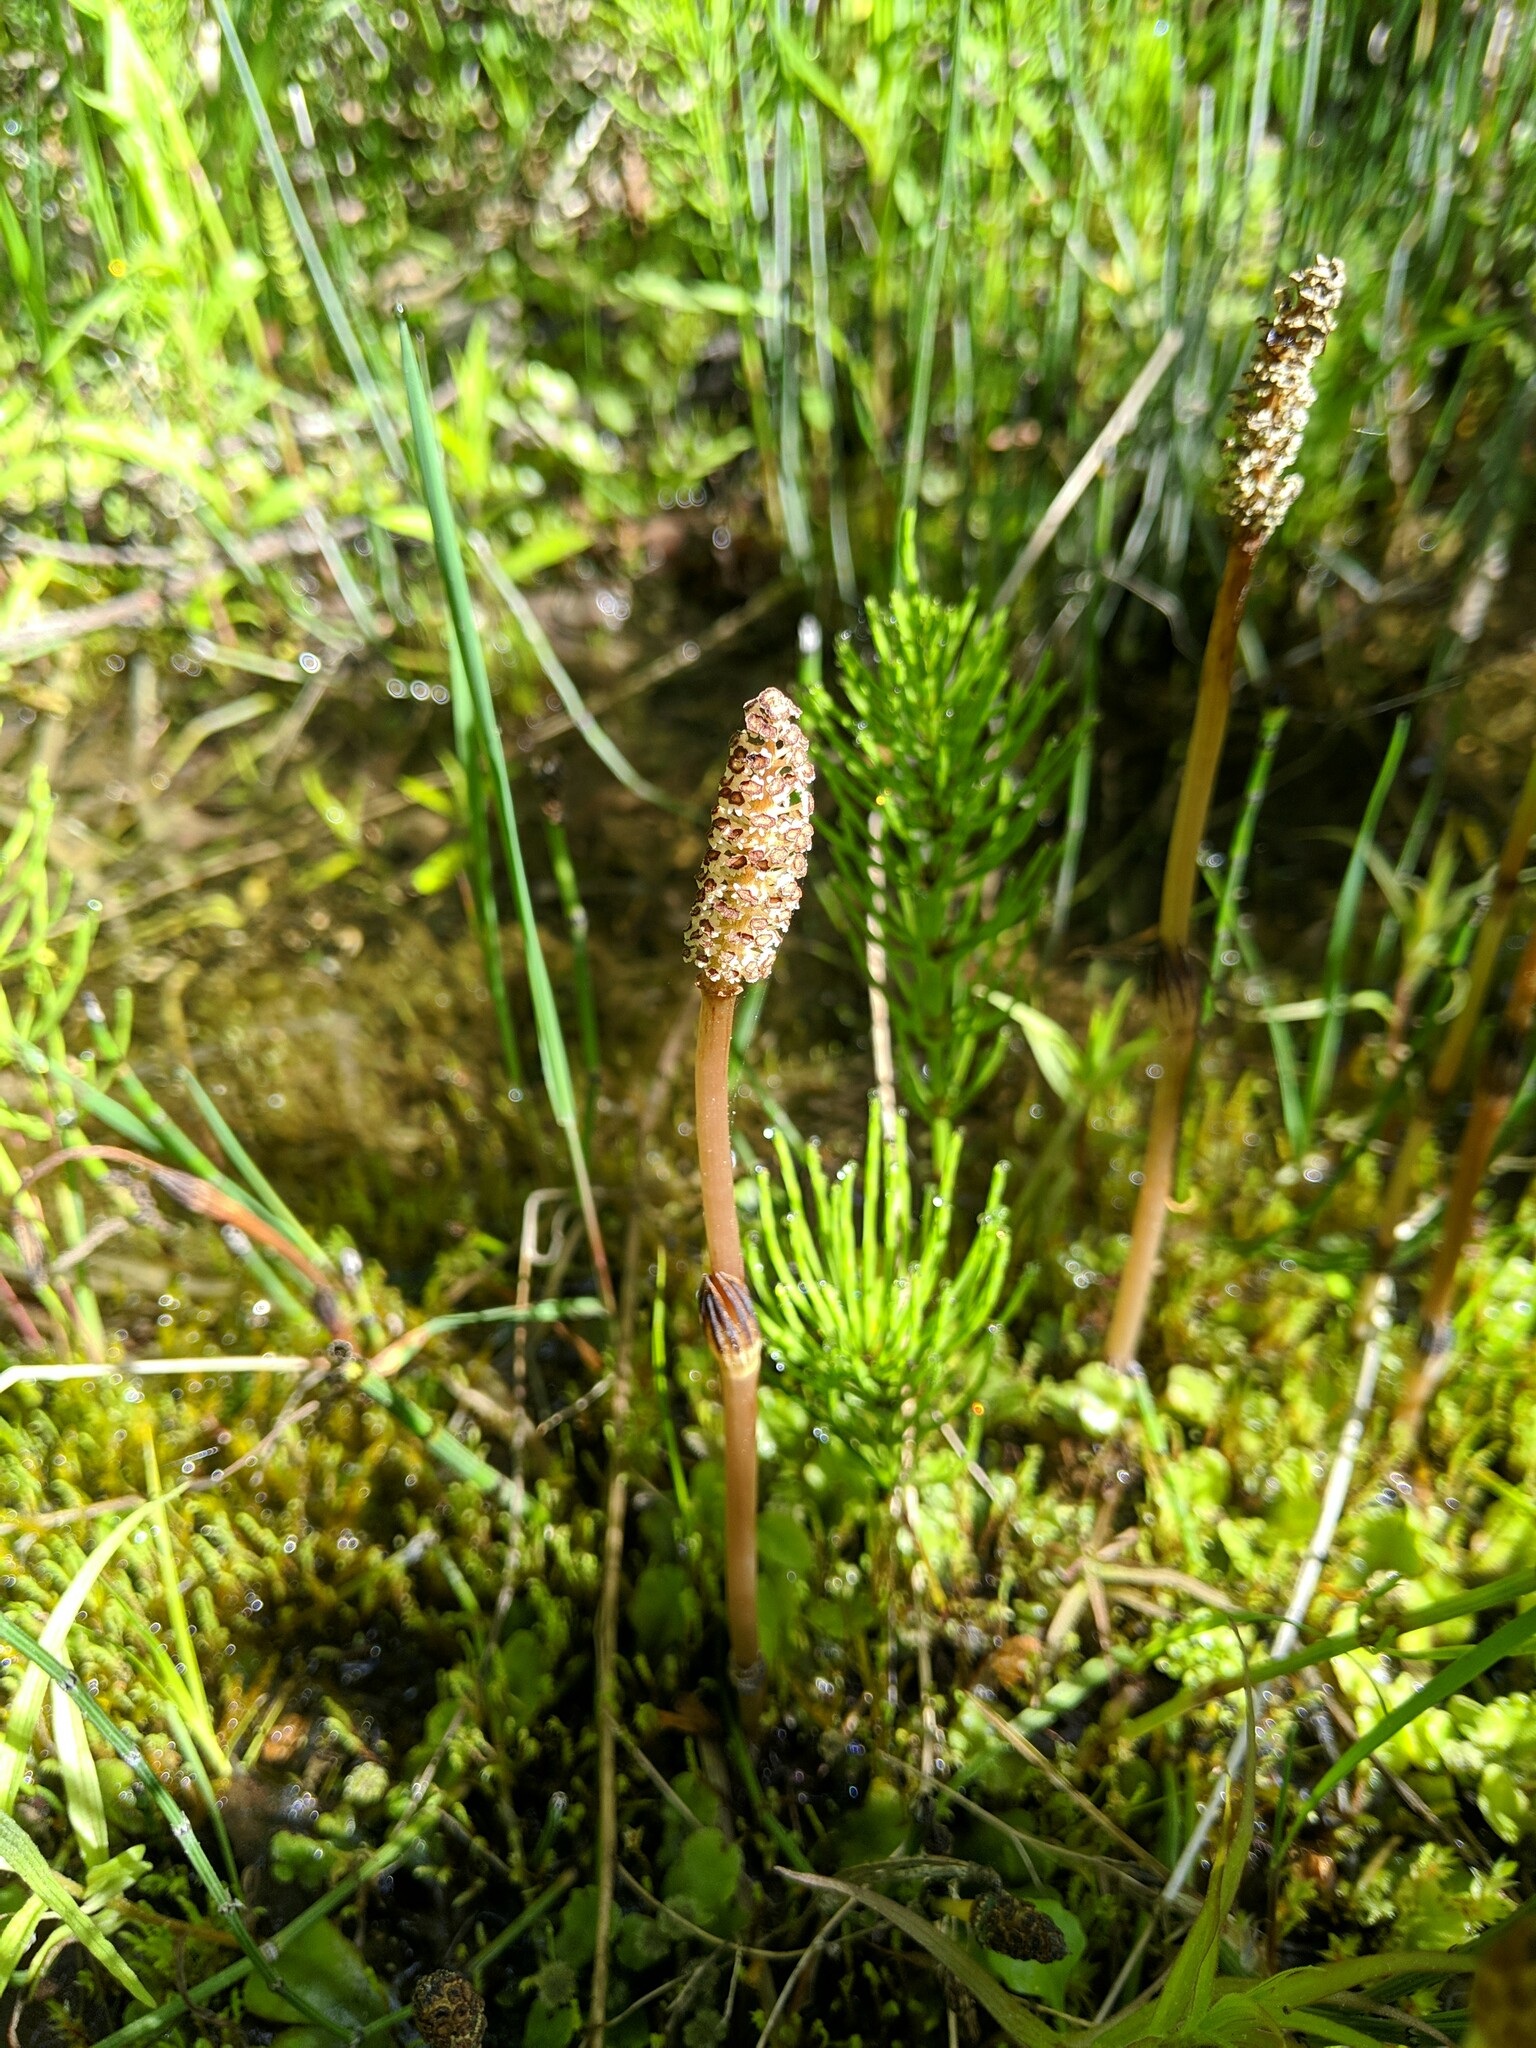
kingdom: Plantae
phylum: Tracheophyta
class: Polypodiopsida
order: Equisetales
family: Equisetaceae
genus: Equisetum
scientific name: Equisetum arvense
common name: Field horsetail
